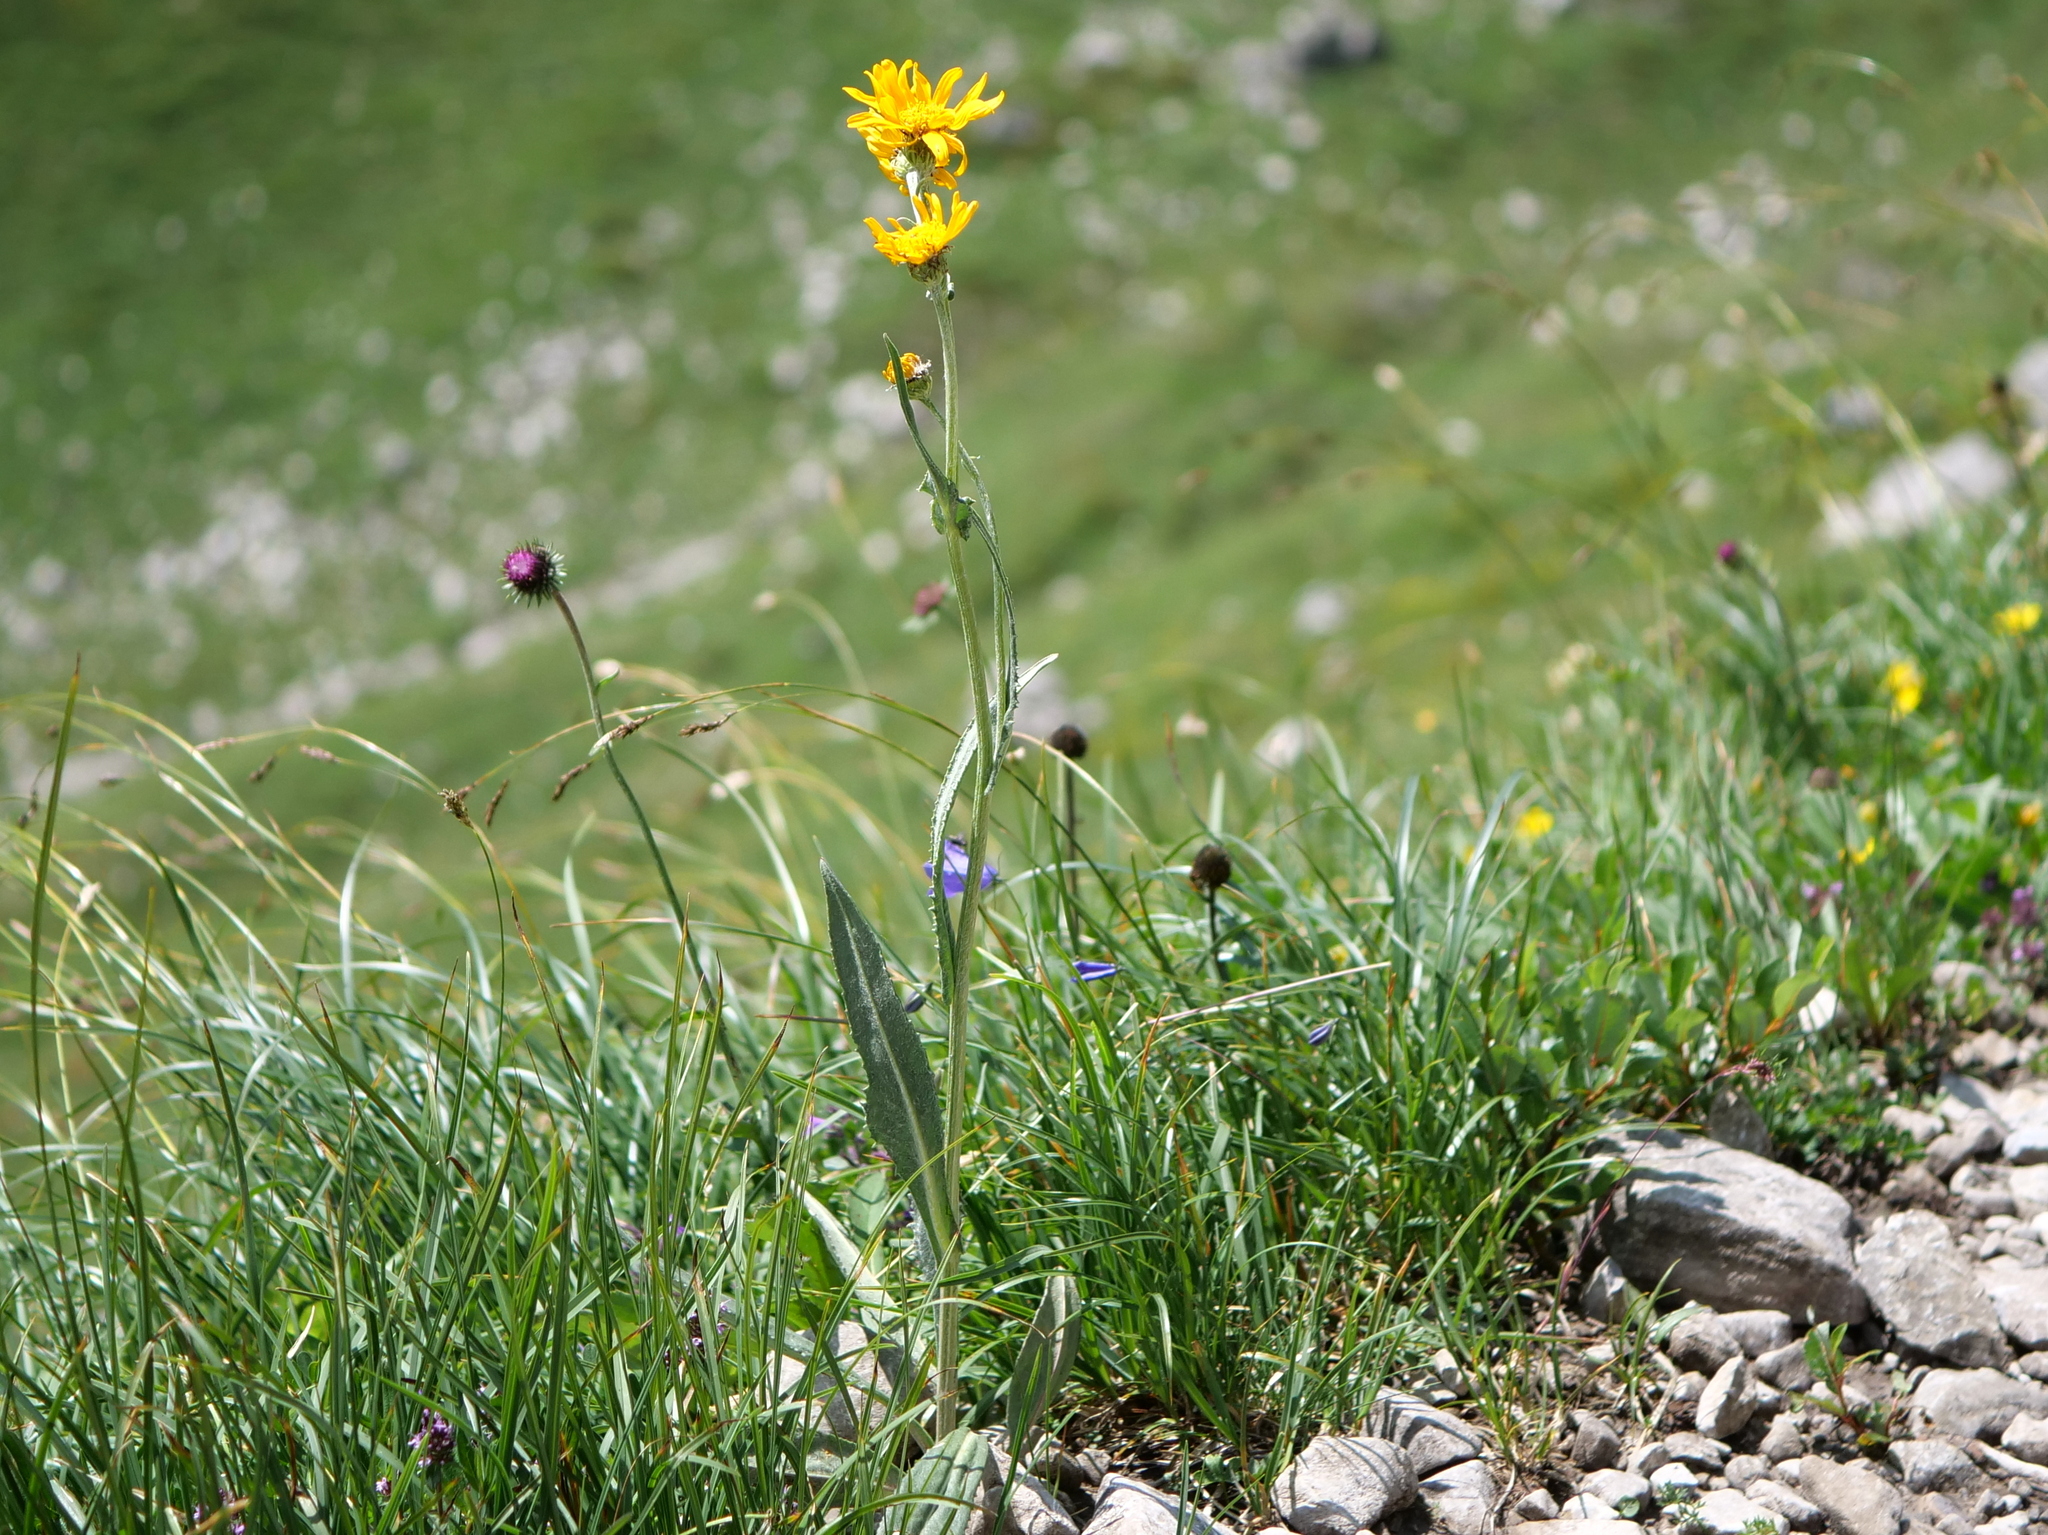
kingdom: Plantae
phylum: Tracheophyta
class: Magnoliopsida
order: Asterales
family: Asteraceae
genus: Senecio
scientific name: Senecio doronicum
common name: Chamois ragwort
